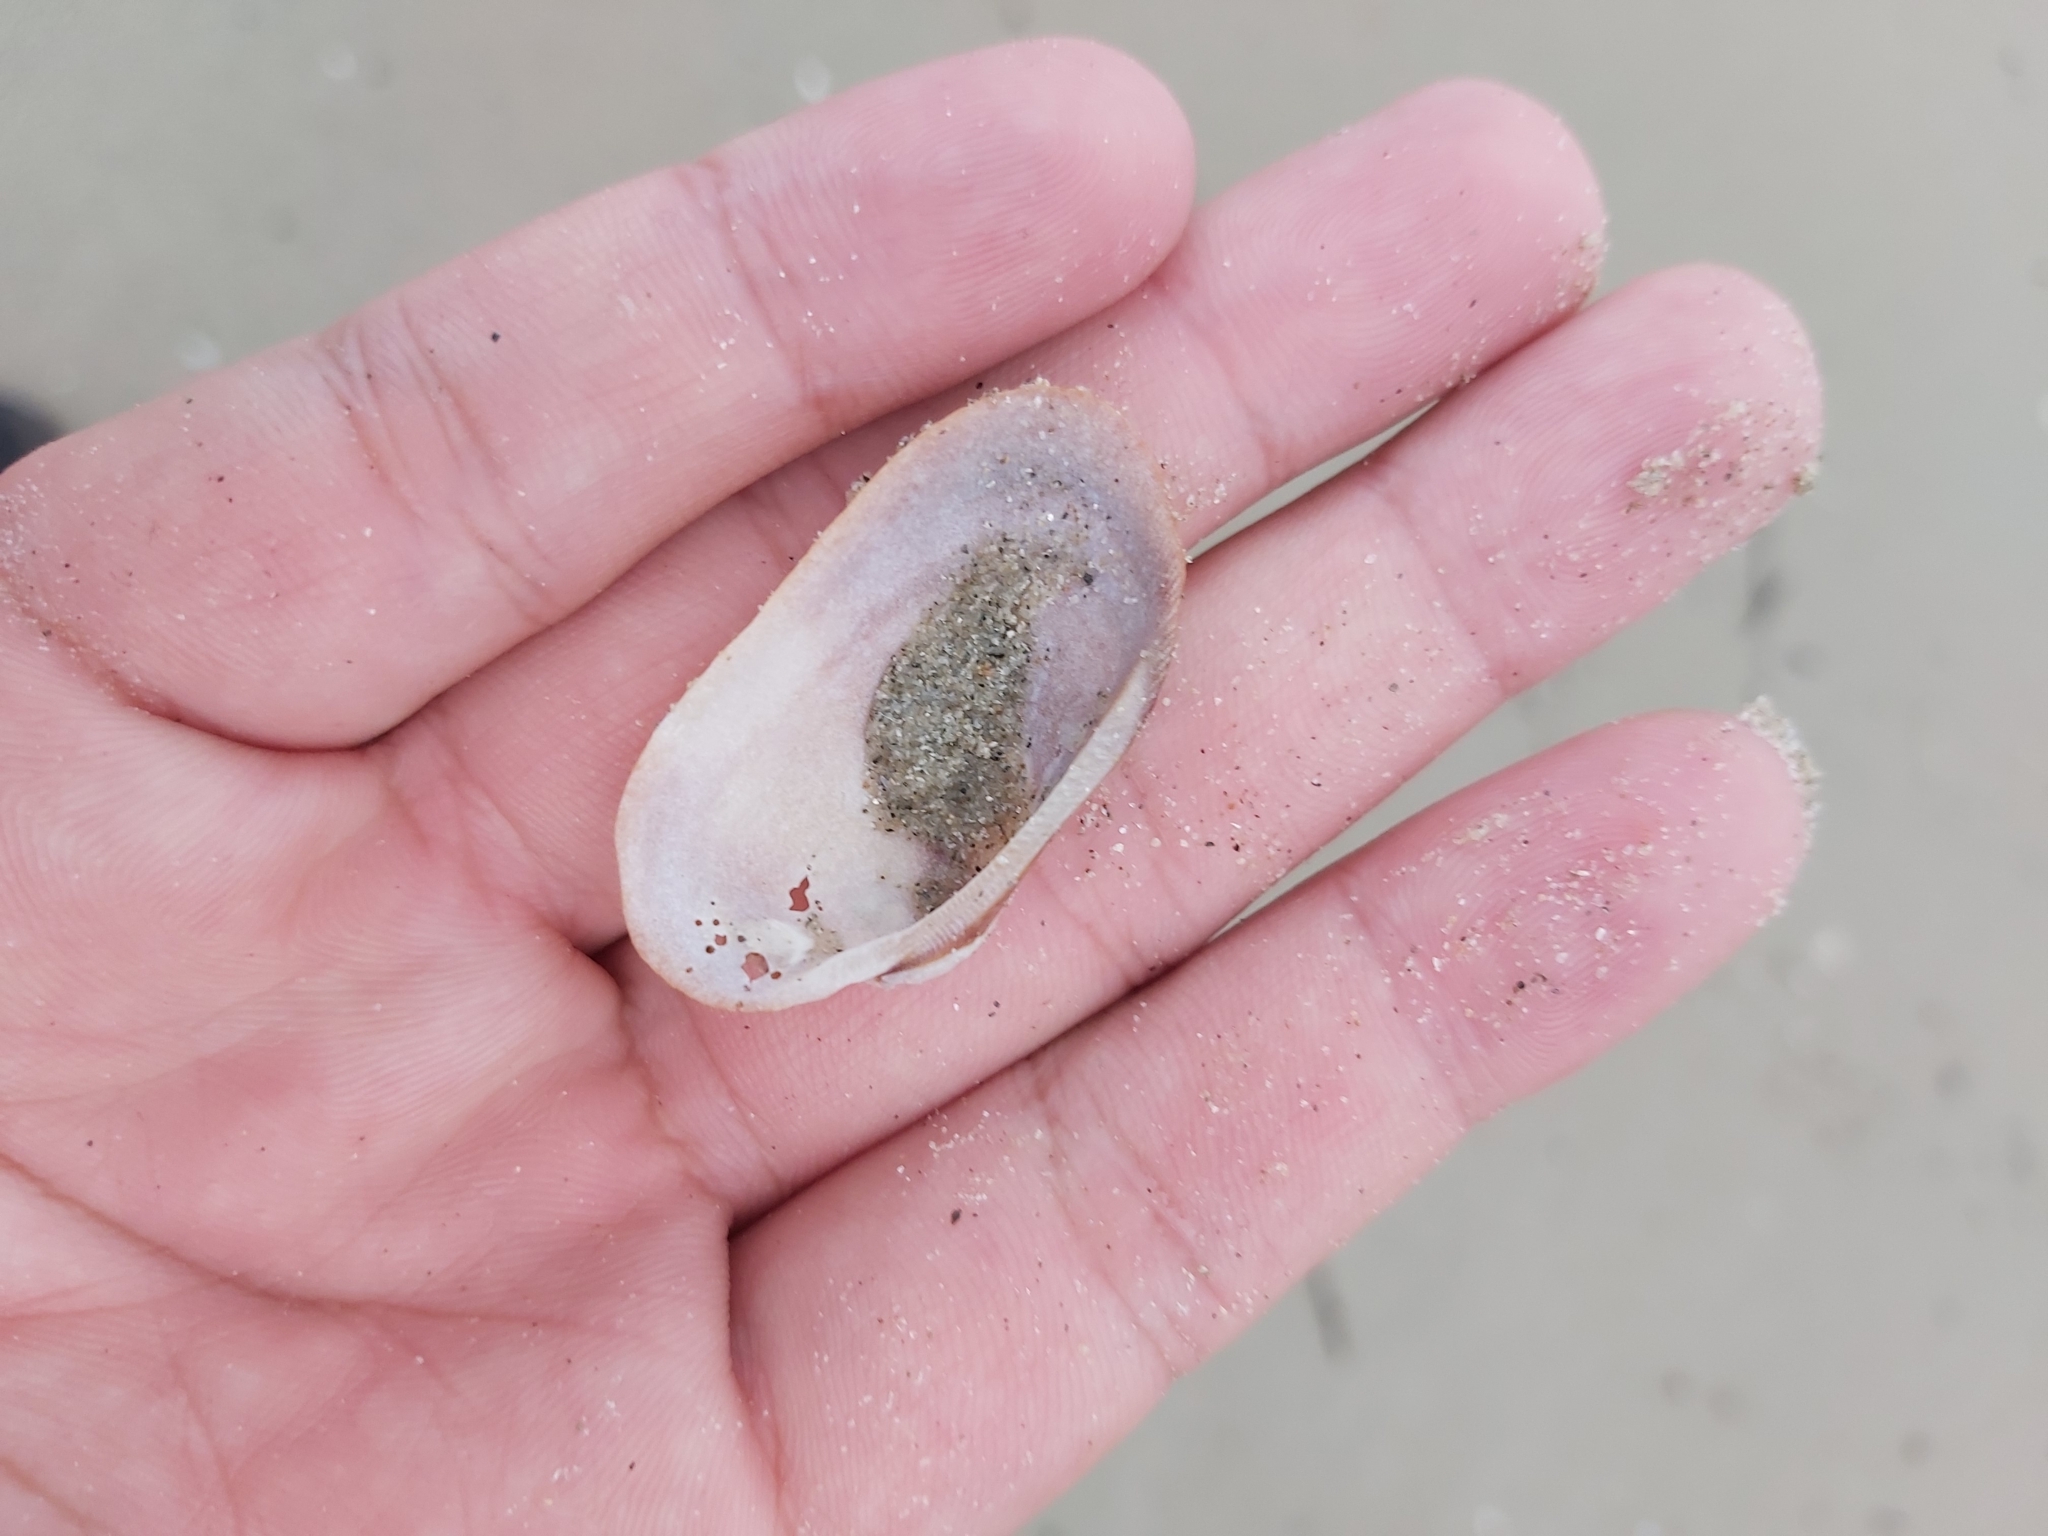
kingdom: Animalia
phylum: Mollusca
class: Bivalvia
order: Arcida
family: Arcidae
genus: Barbatia
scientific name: Barbatia amygdalumtostum
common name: Burnt-almond ark
